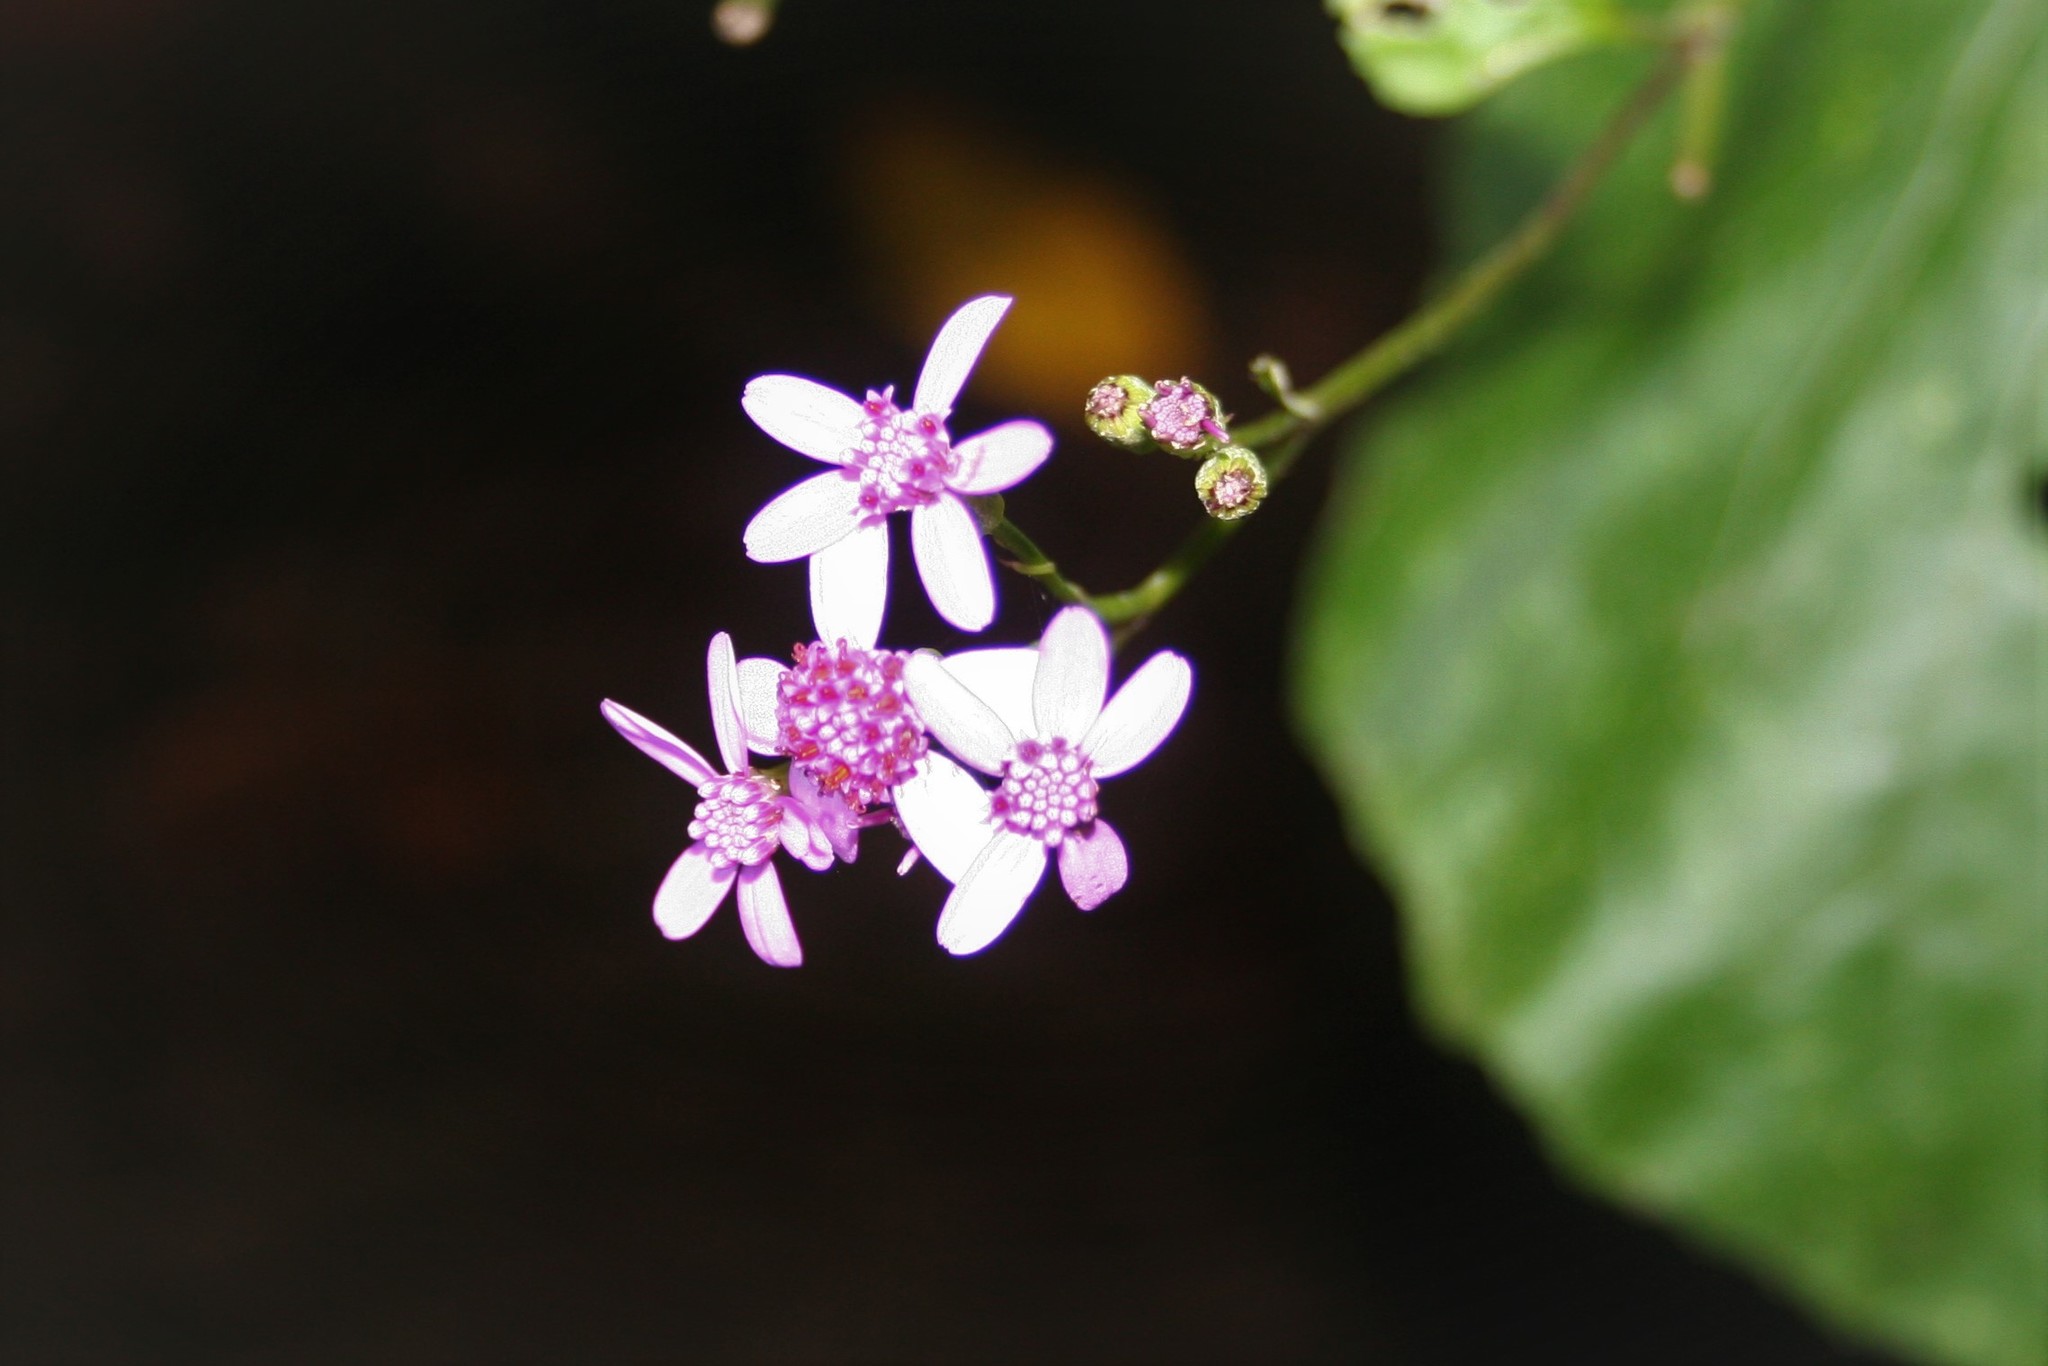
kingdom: Plantae
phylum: Tracheophyta
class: Magnoliopsida
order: Asterales
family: Asteraceae
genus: Pericallis
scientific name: Pericallis aurita
